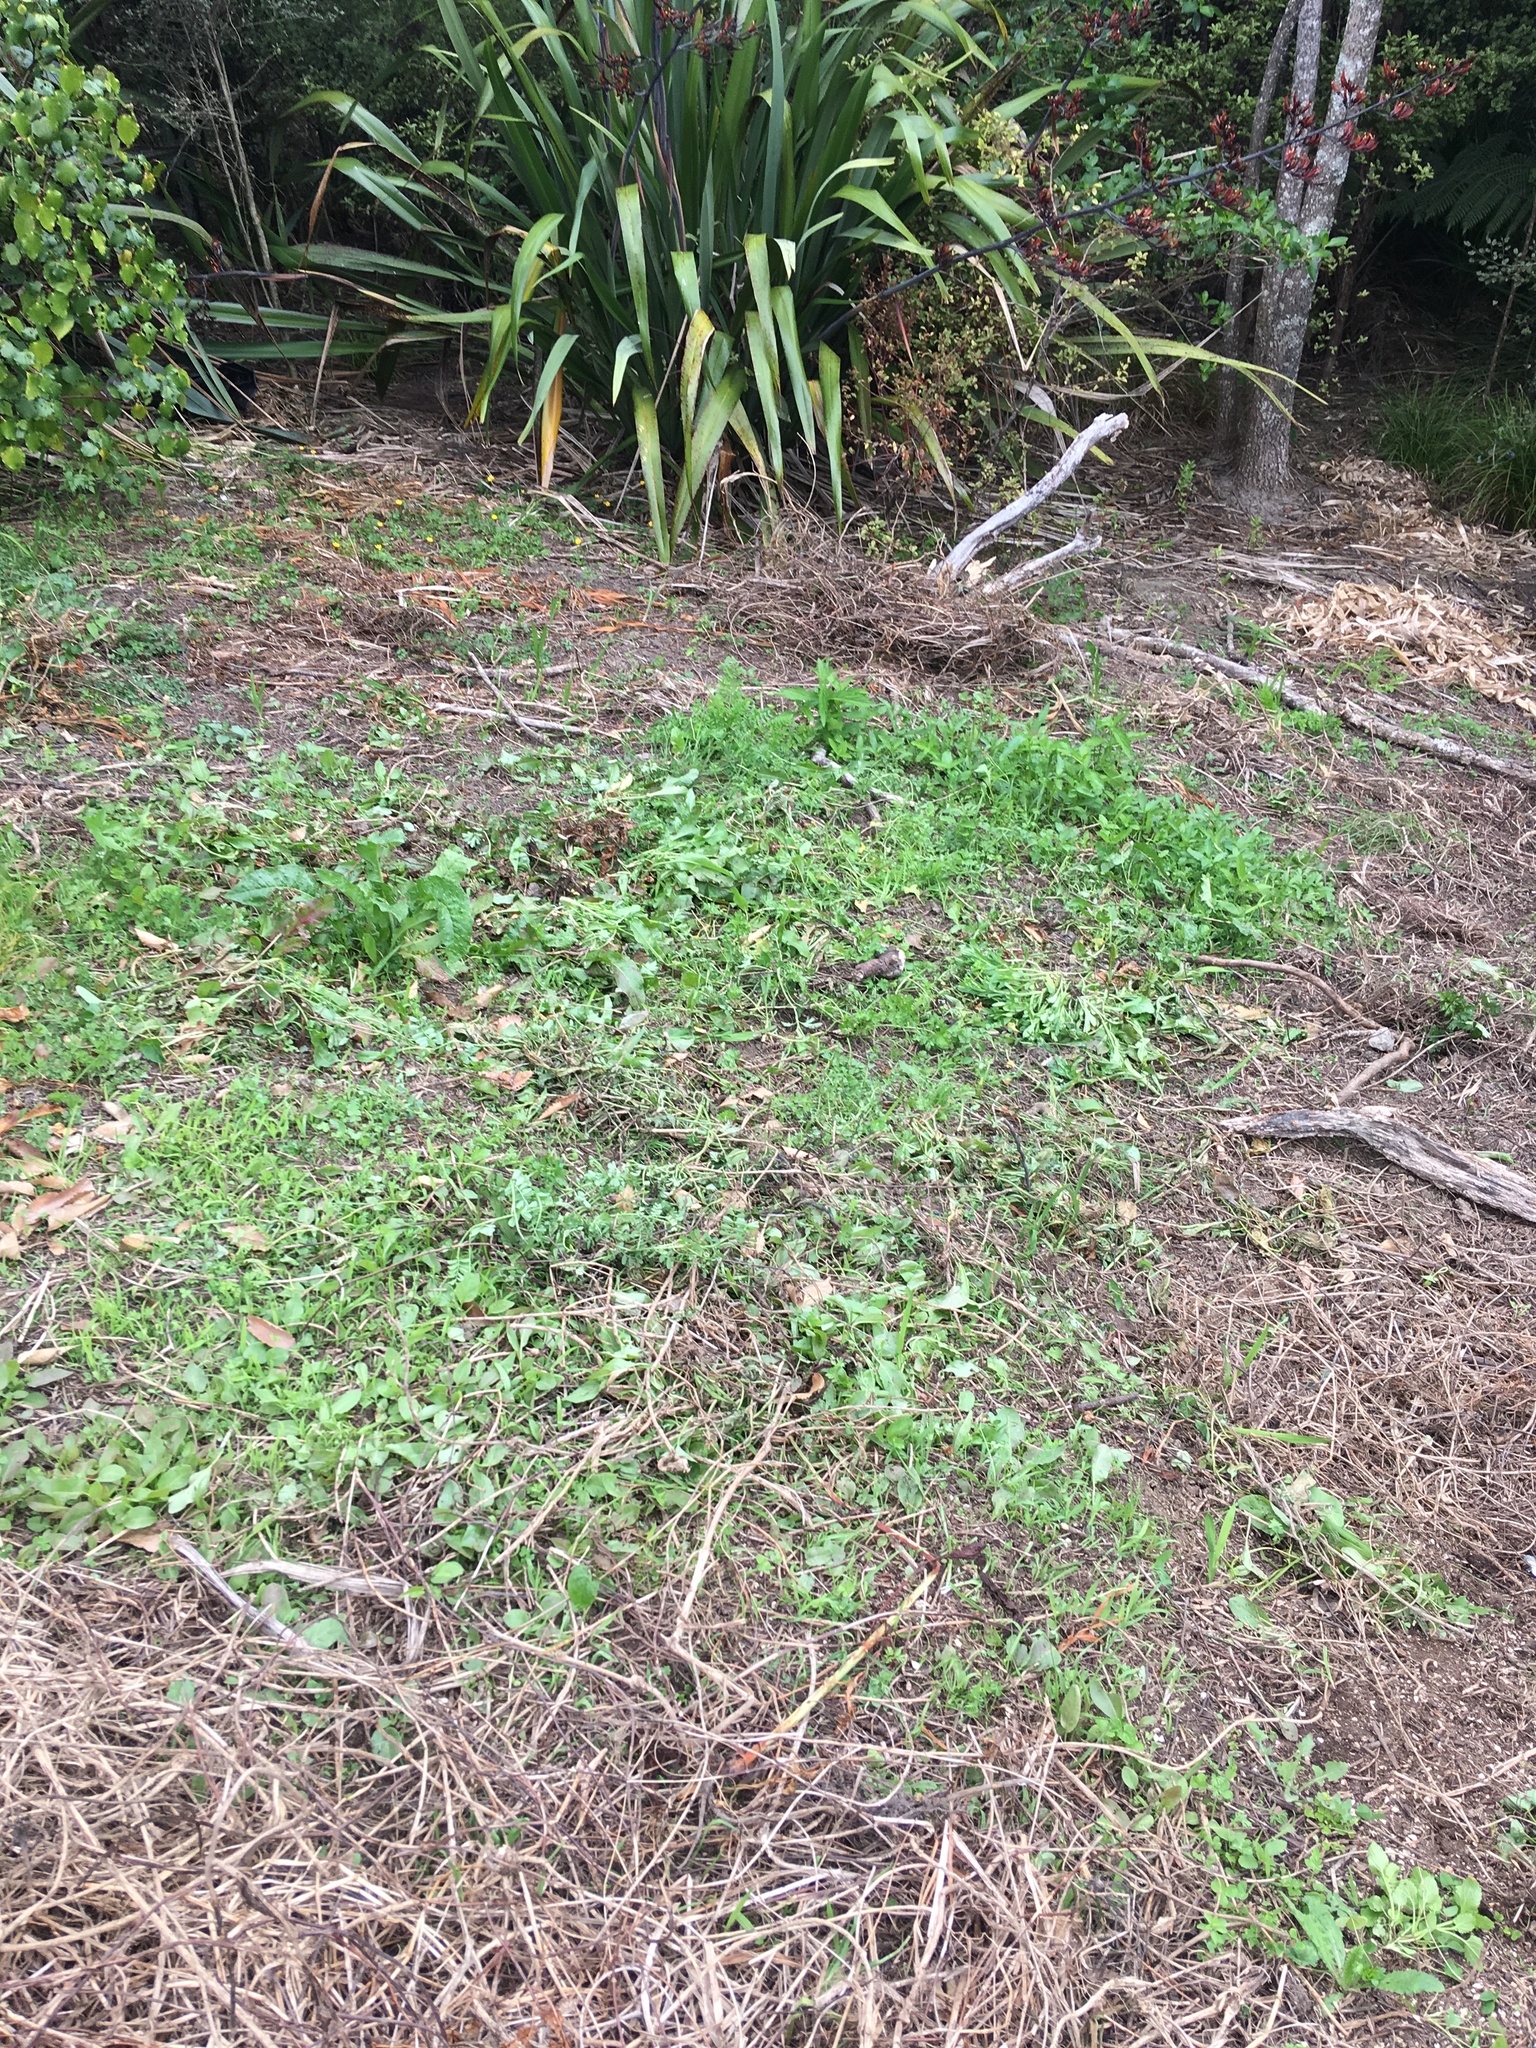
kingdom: Plantae
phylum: Tracheophyta
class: Magnoliopsida
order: Asterales
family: Asteraceae
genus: Helminthotheca
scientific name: Helminthotheca echioides
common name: Ox-tongue
